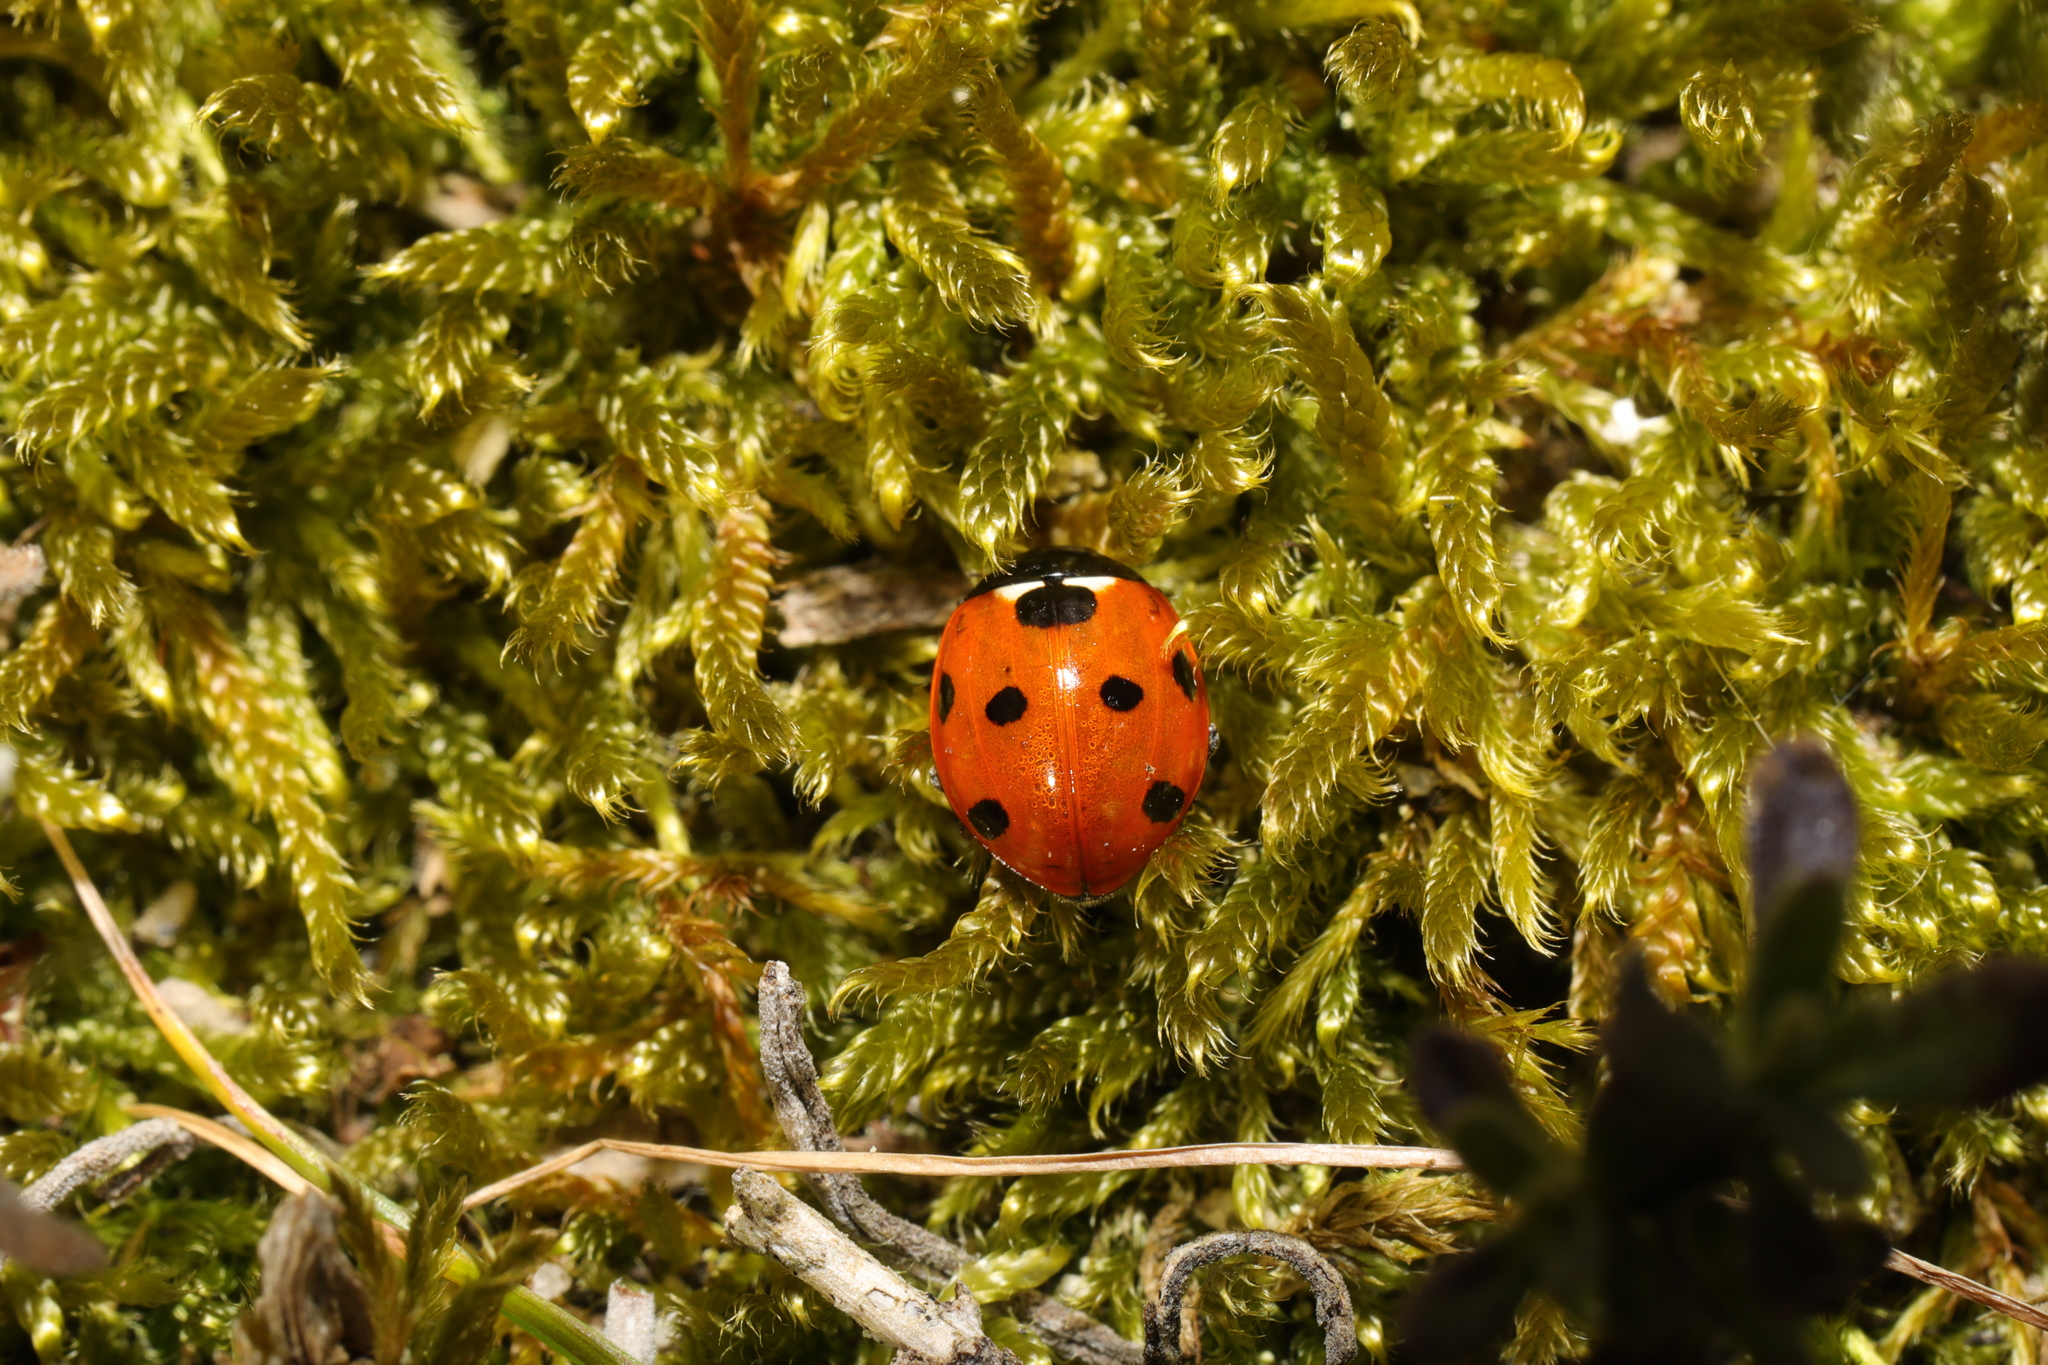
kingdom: Animalia
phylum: Arthropoda
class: Insecta
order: Coleoptera
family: Coccinellidae
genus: Coccinella
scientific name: Coccinella septempunctata
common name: Sevenspotted lady beetle
